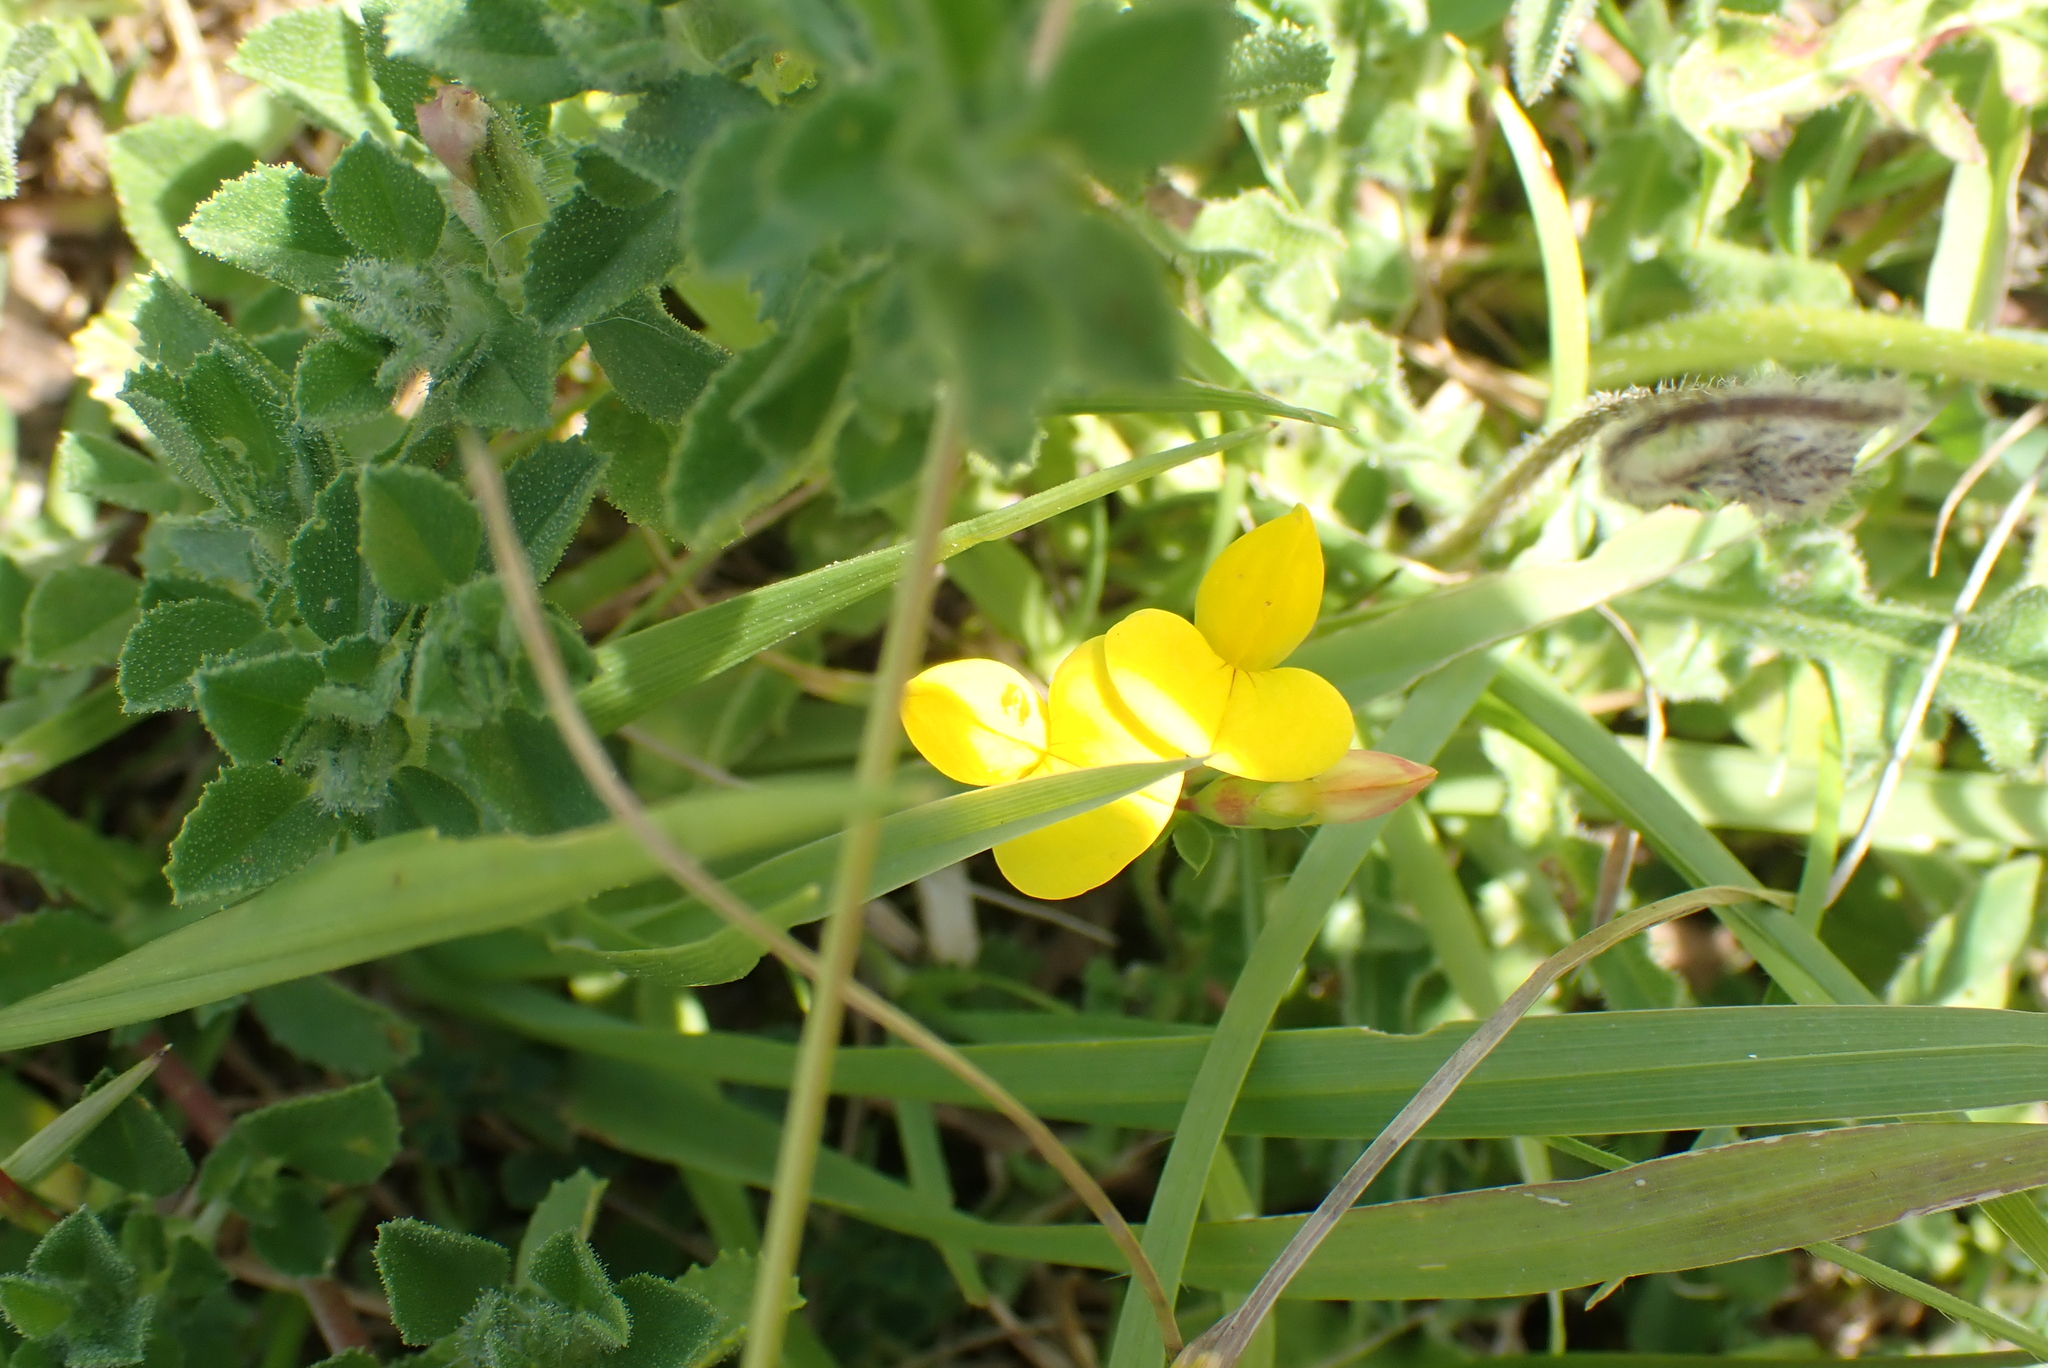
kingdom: Plantae
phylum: Tracheophyta
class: Magnoliopsida
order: Fabales
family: Fabaceae
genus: Lotus
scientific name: Lotus corniculatus
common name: Common bird's-foot-trefoil
